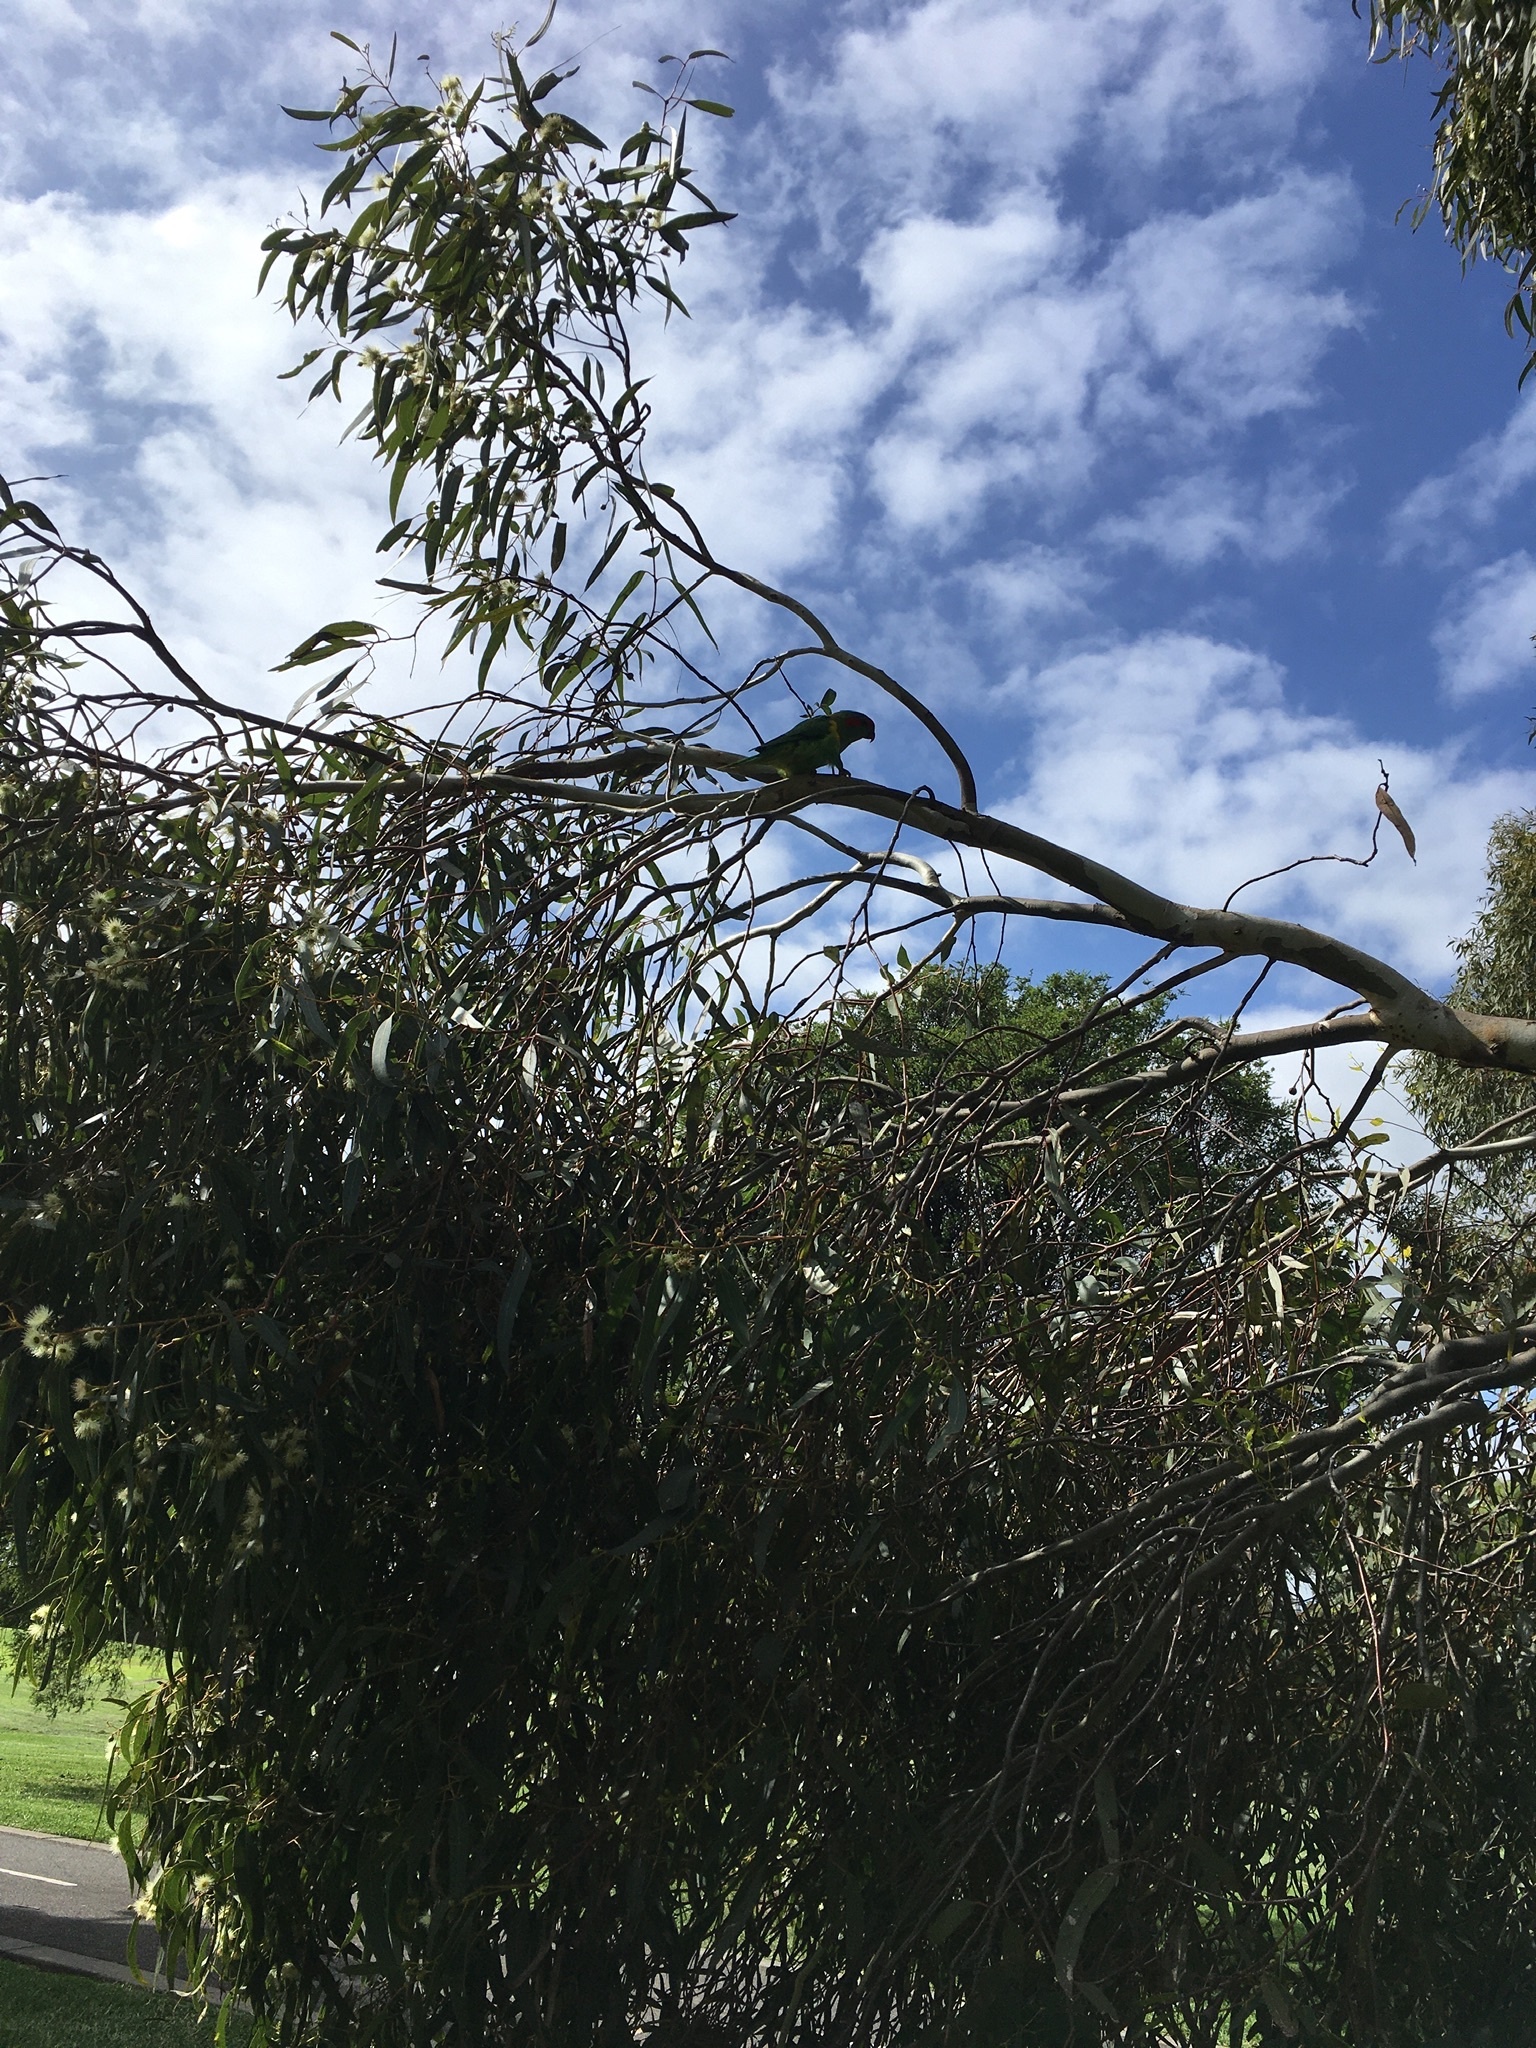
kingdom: Animalia
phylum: Chordata
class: Aves
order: Psittaciformes
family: Psittacidae
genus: Glossopsitta
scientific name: Glossopsitta concinna
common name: Musk lorikeet
